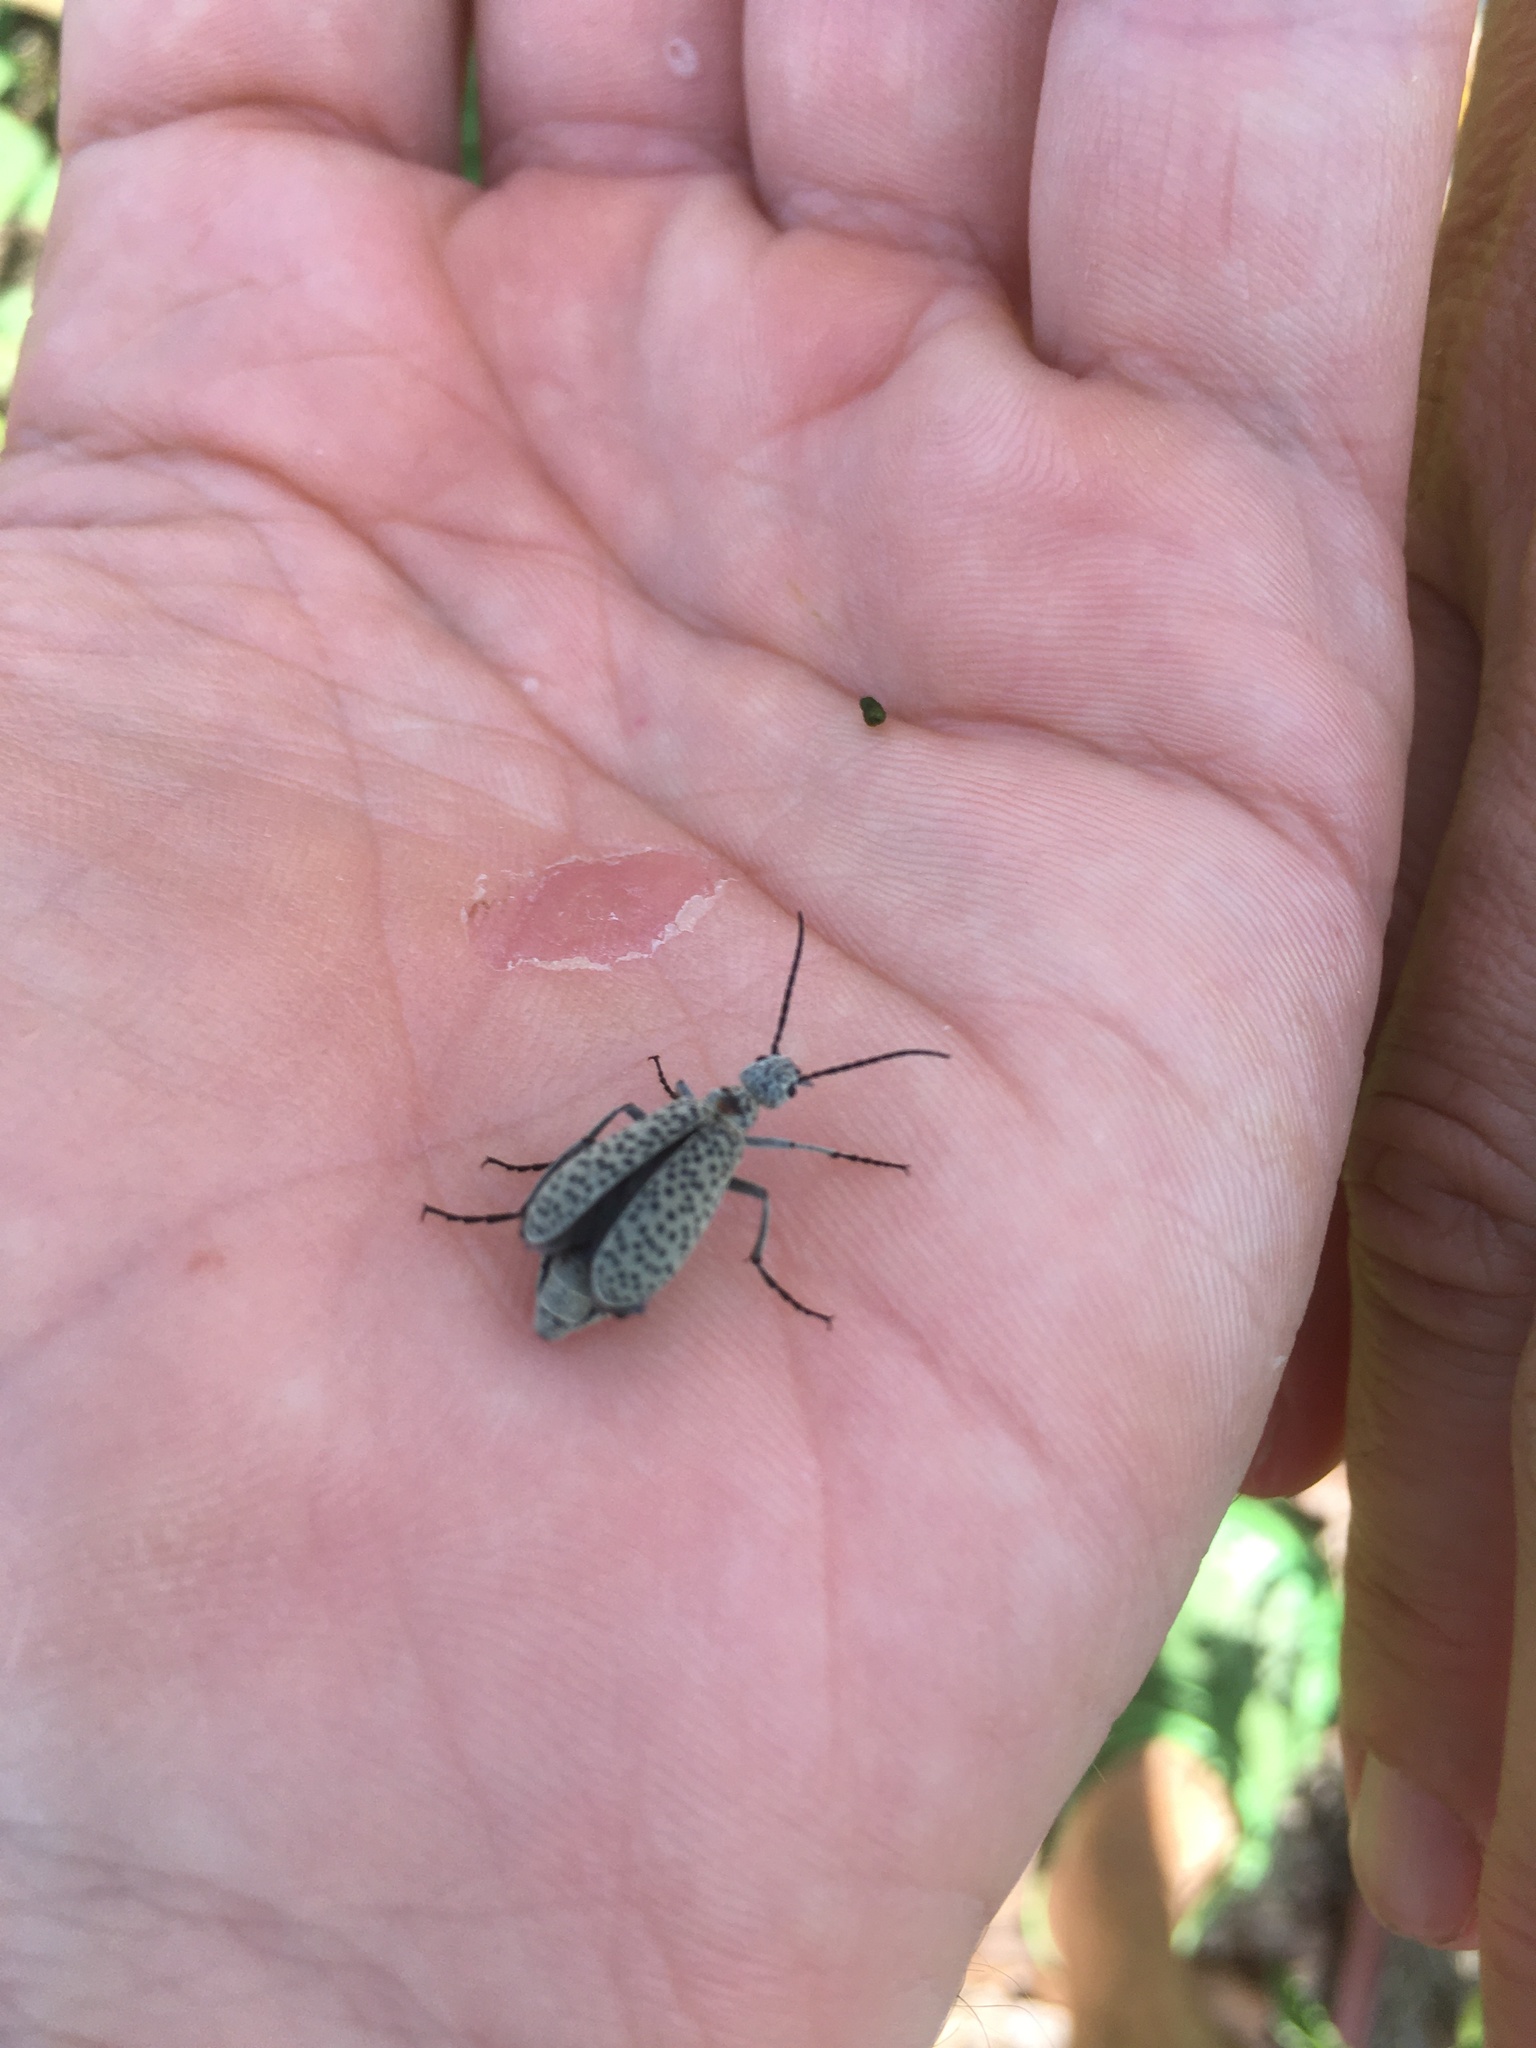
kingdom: Animalia
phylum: Arthropoda
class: Insecta
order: Coleoptera
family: Meloidae
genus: Epicauta
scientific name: Epicauta
